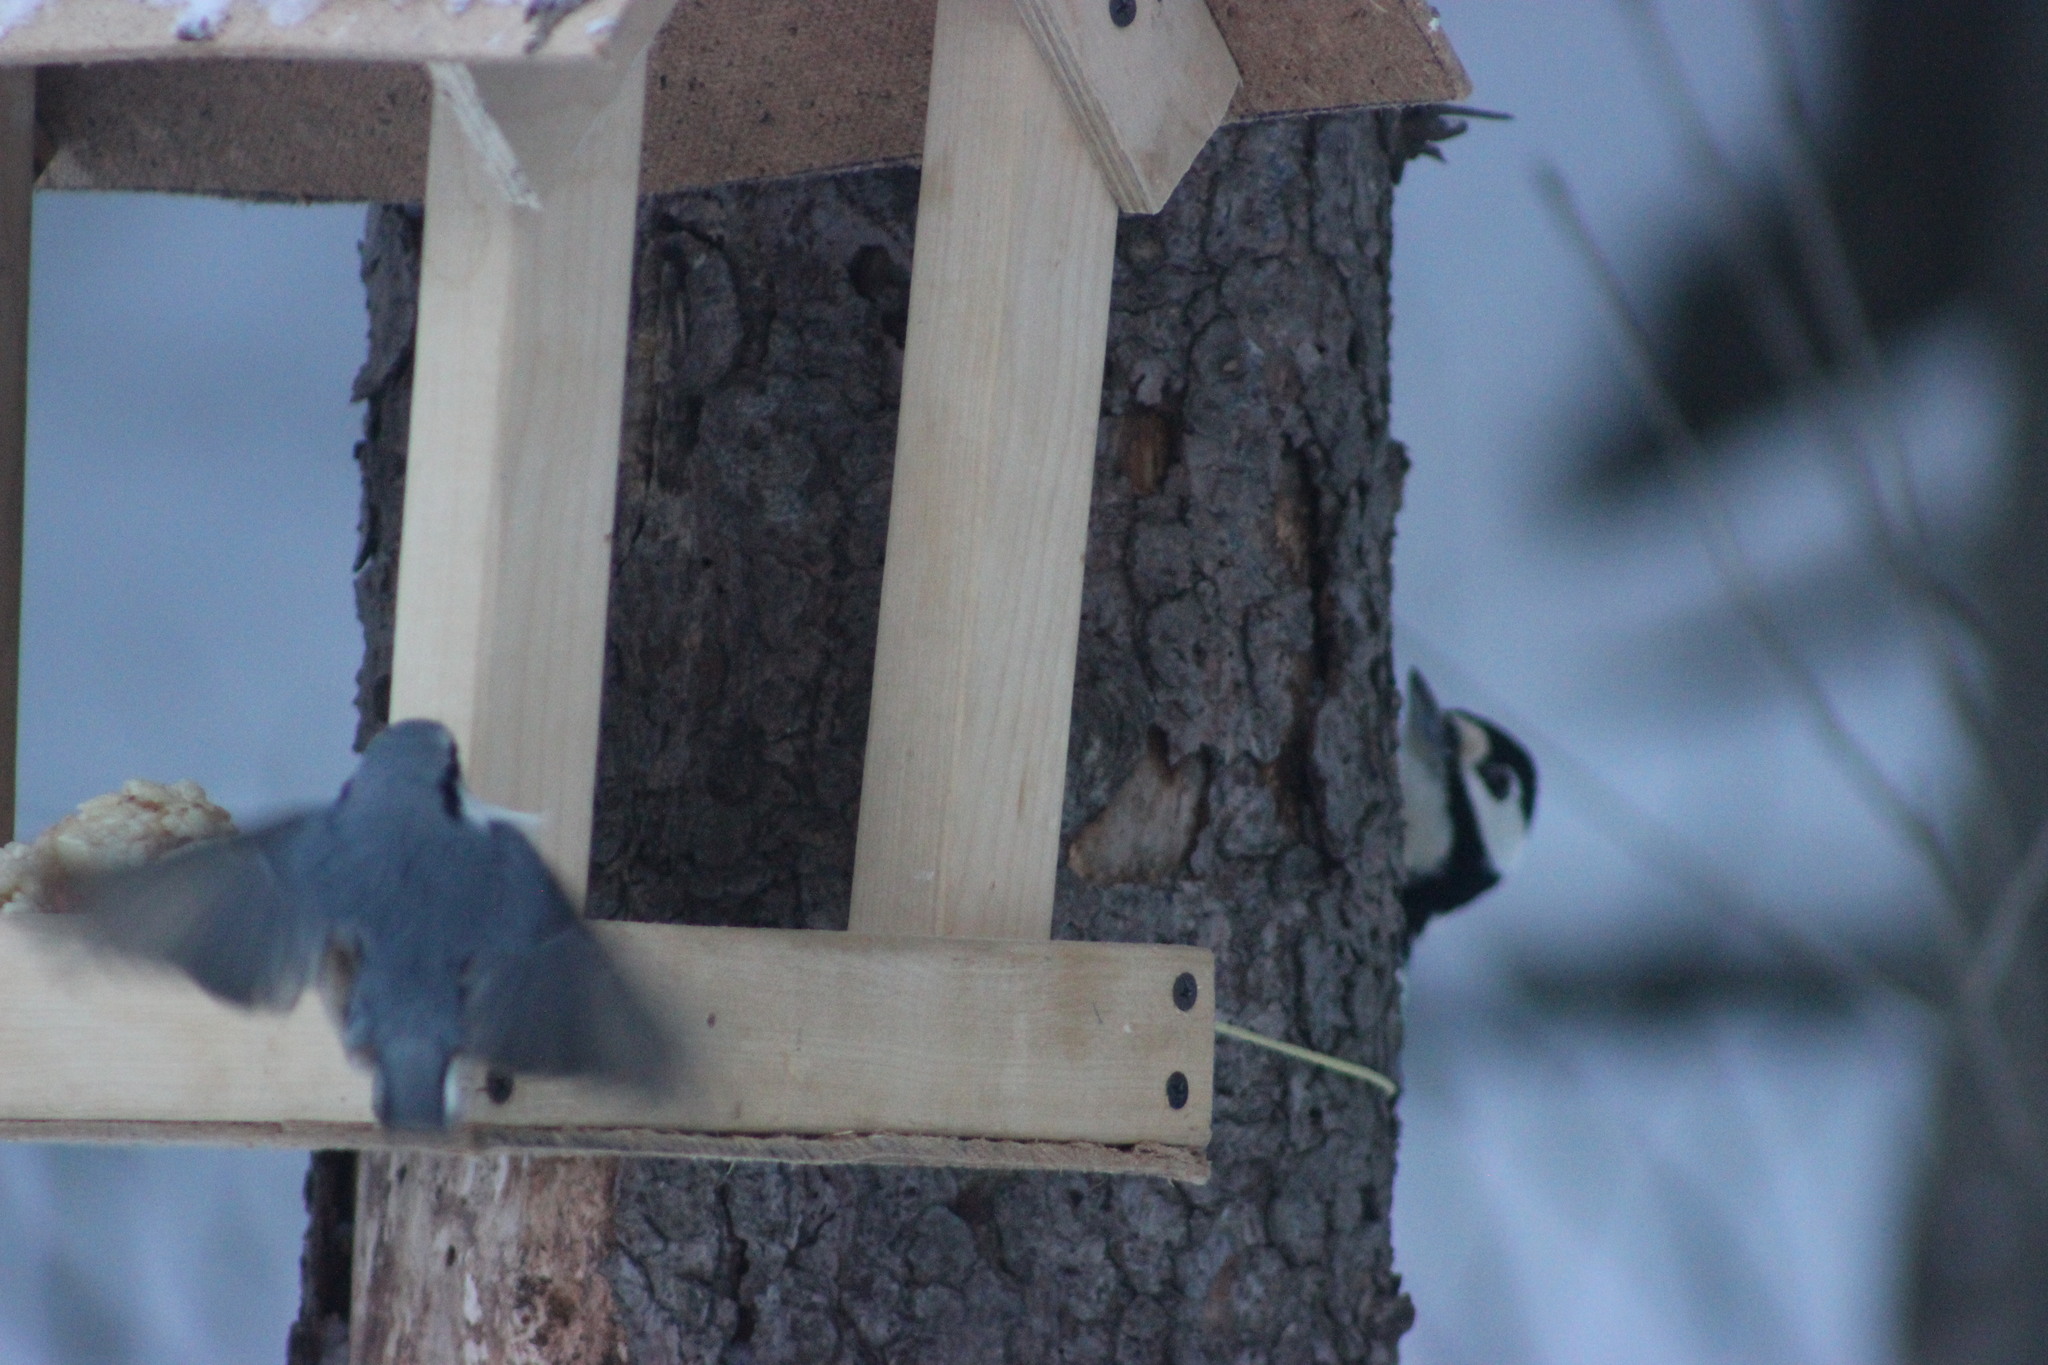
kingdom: Animalia
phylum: Chordata
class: Aves
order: Passeriformes
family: Sittidae
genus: Sitta
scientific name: Sitta europaea
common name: Eurasian nuthatch
